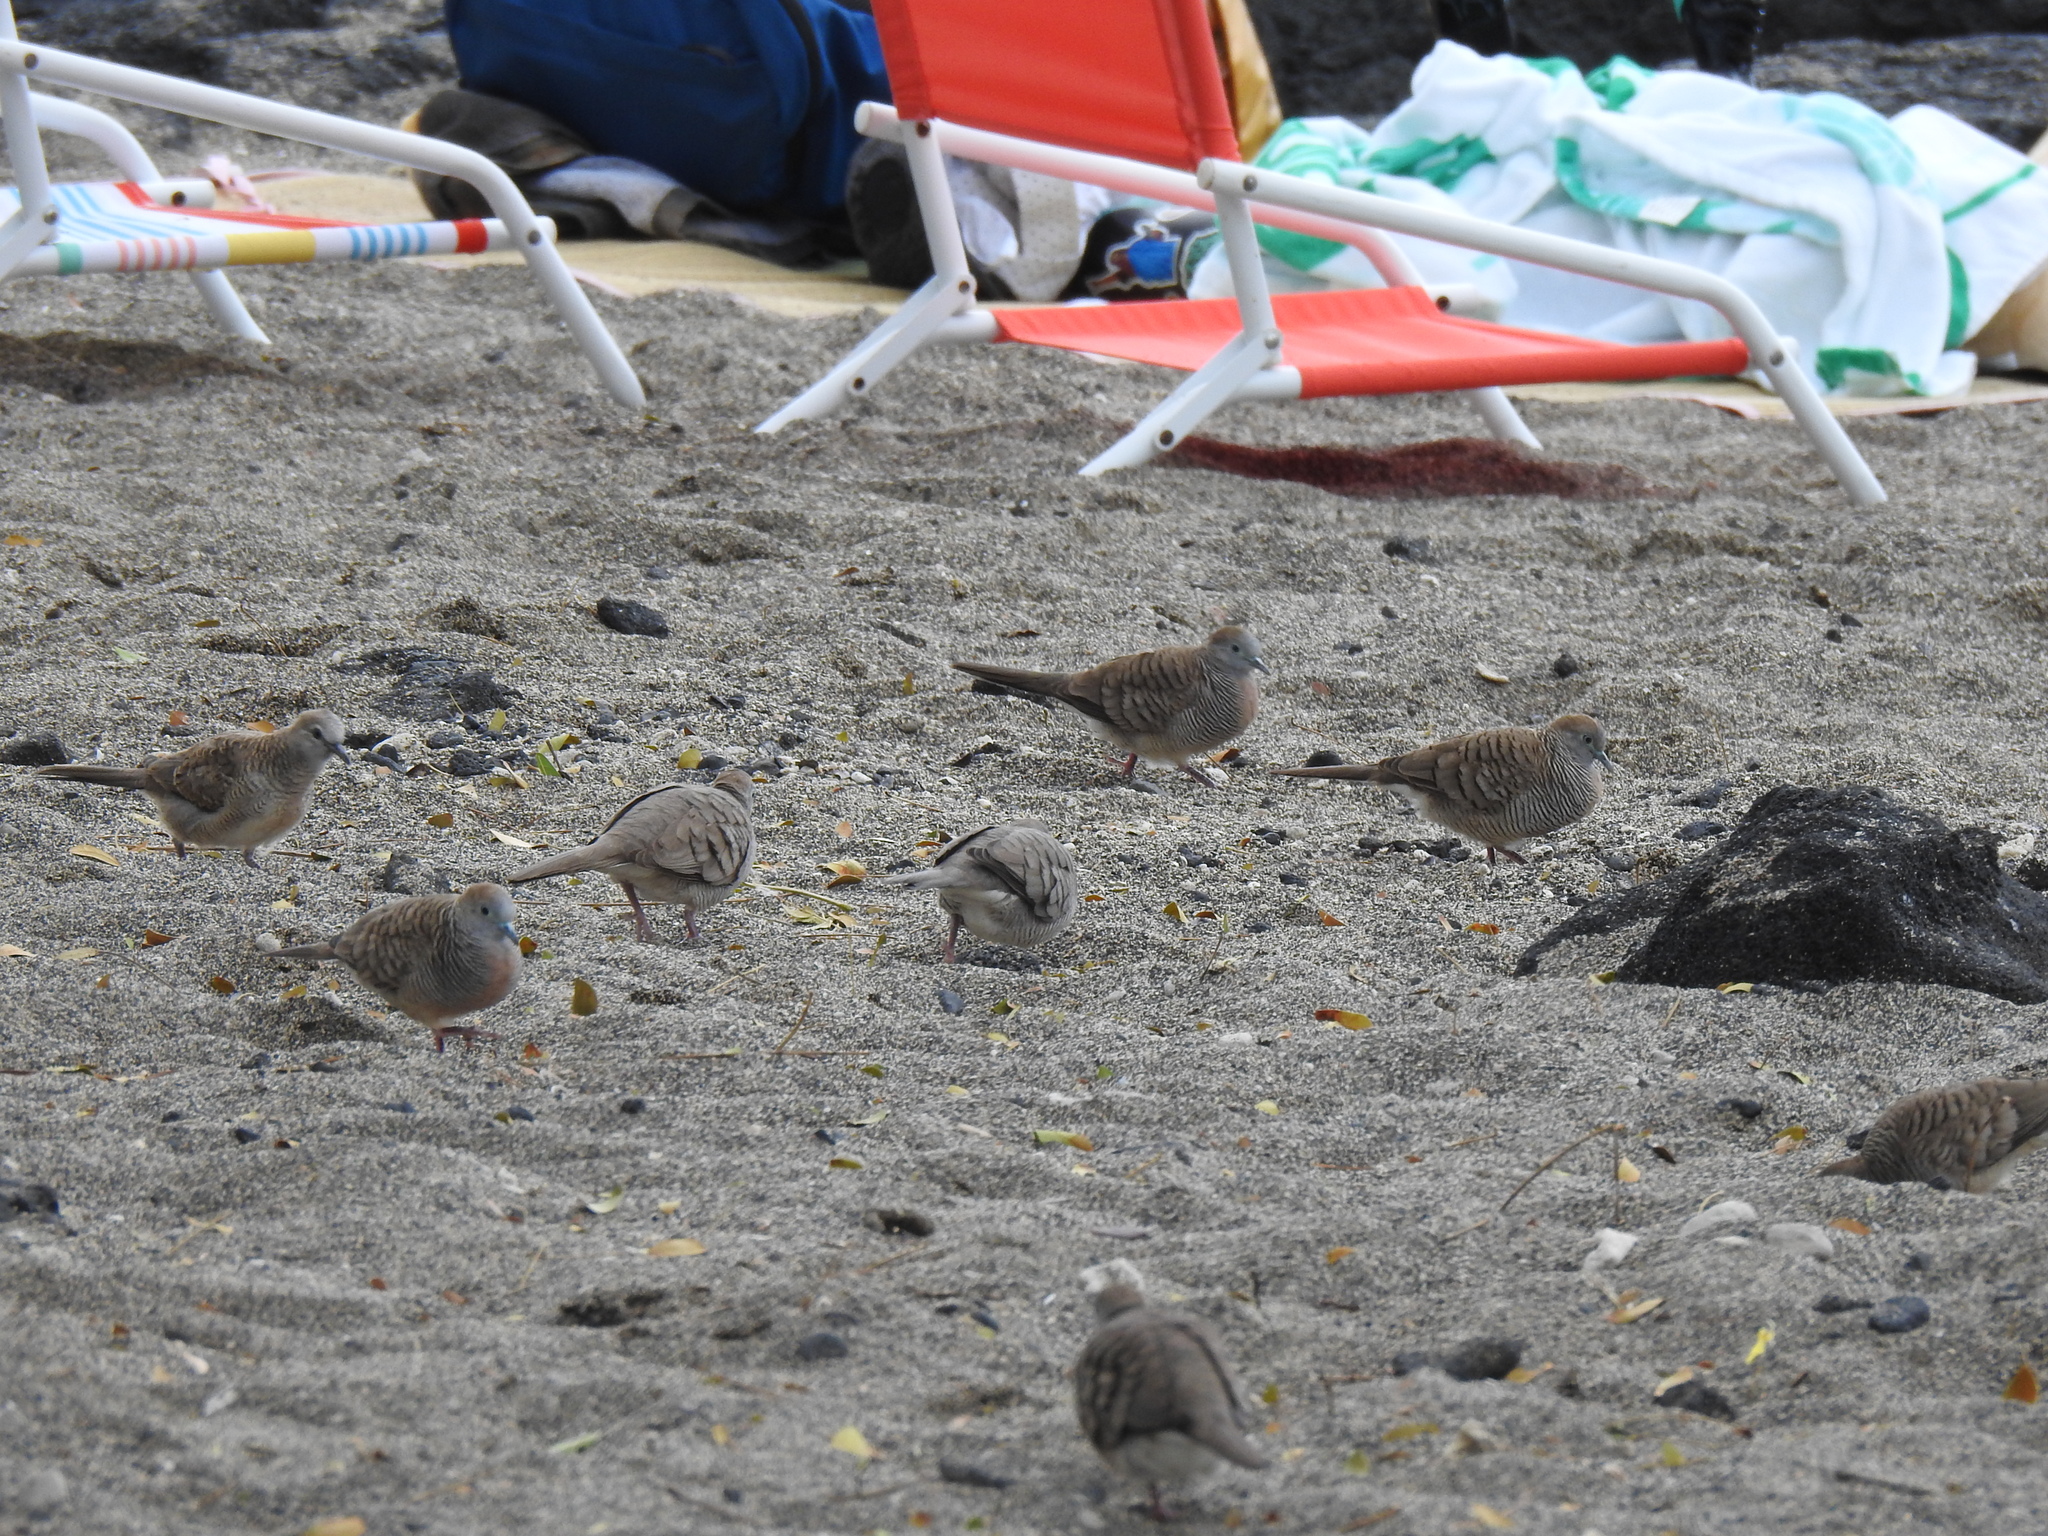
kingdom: Animalia
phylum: Chordata
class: Aves
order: Columbiformes
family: Columbidae
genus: Geopelia
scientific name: Geopelia striata
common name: Zebra dove
